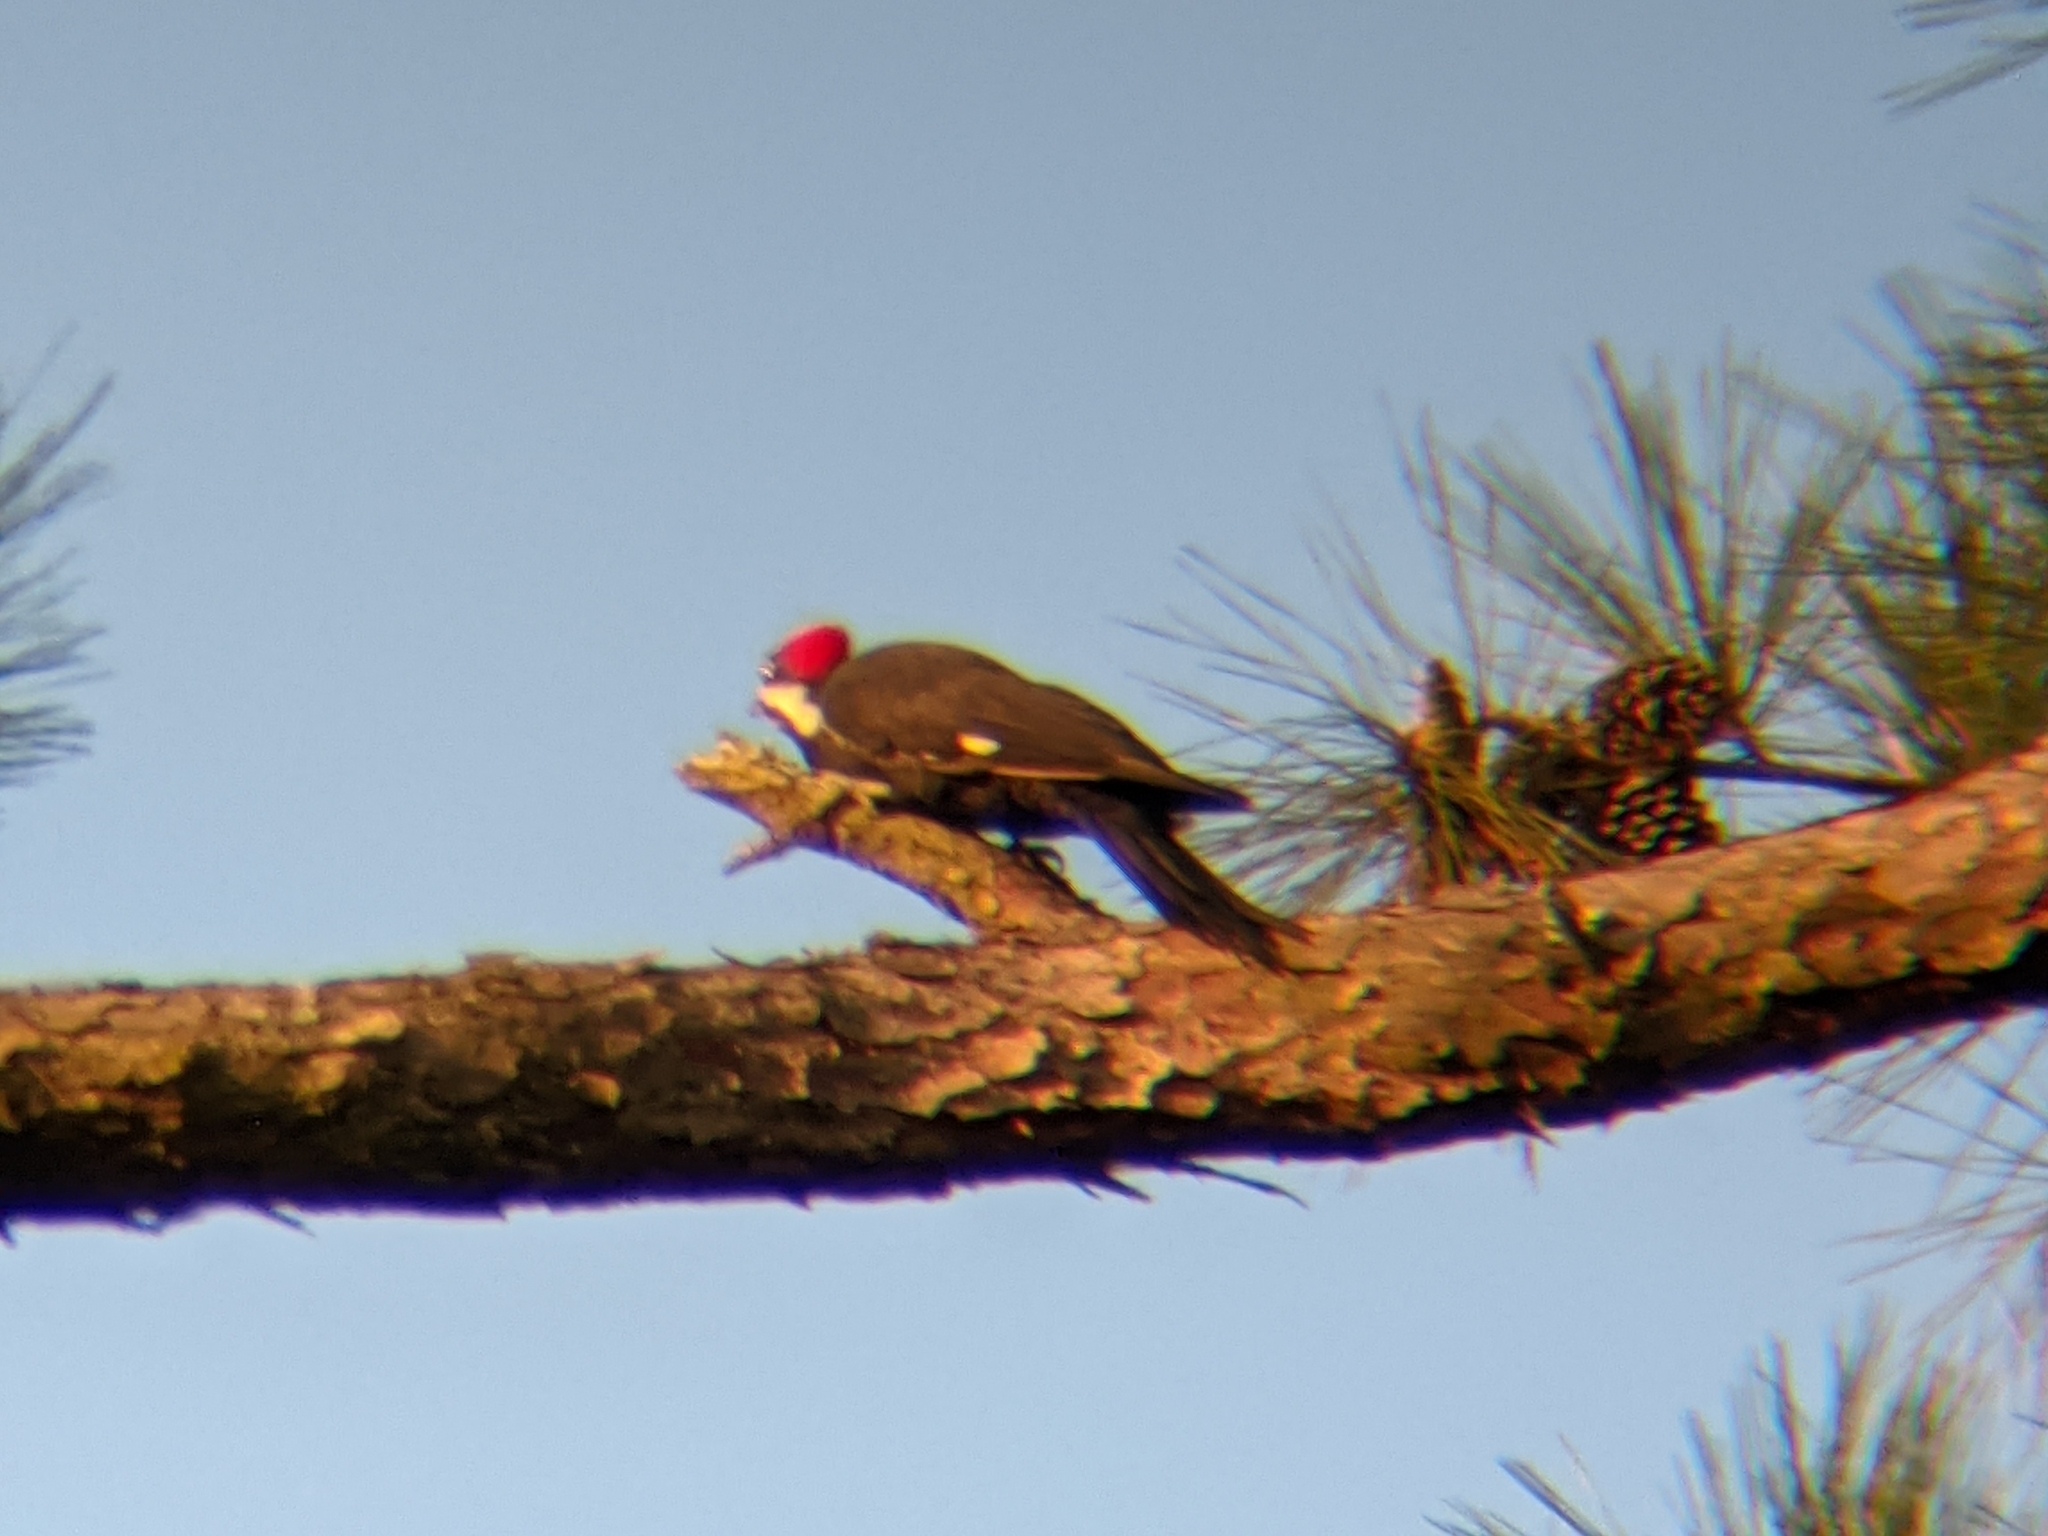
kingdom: Animalia
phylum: Chordata
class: Aves
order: Piciformes
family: Picidae
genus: Dryocopus
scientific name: Dryocopus pileatus
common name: Pileated woodpecker
